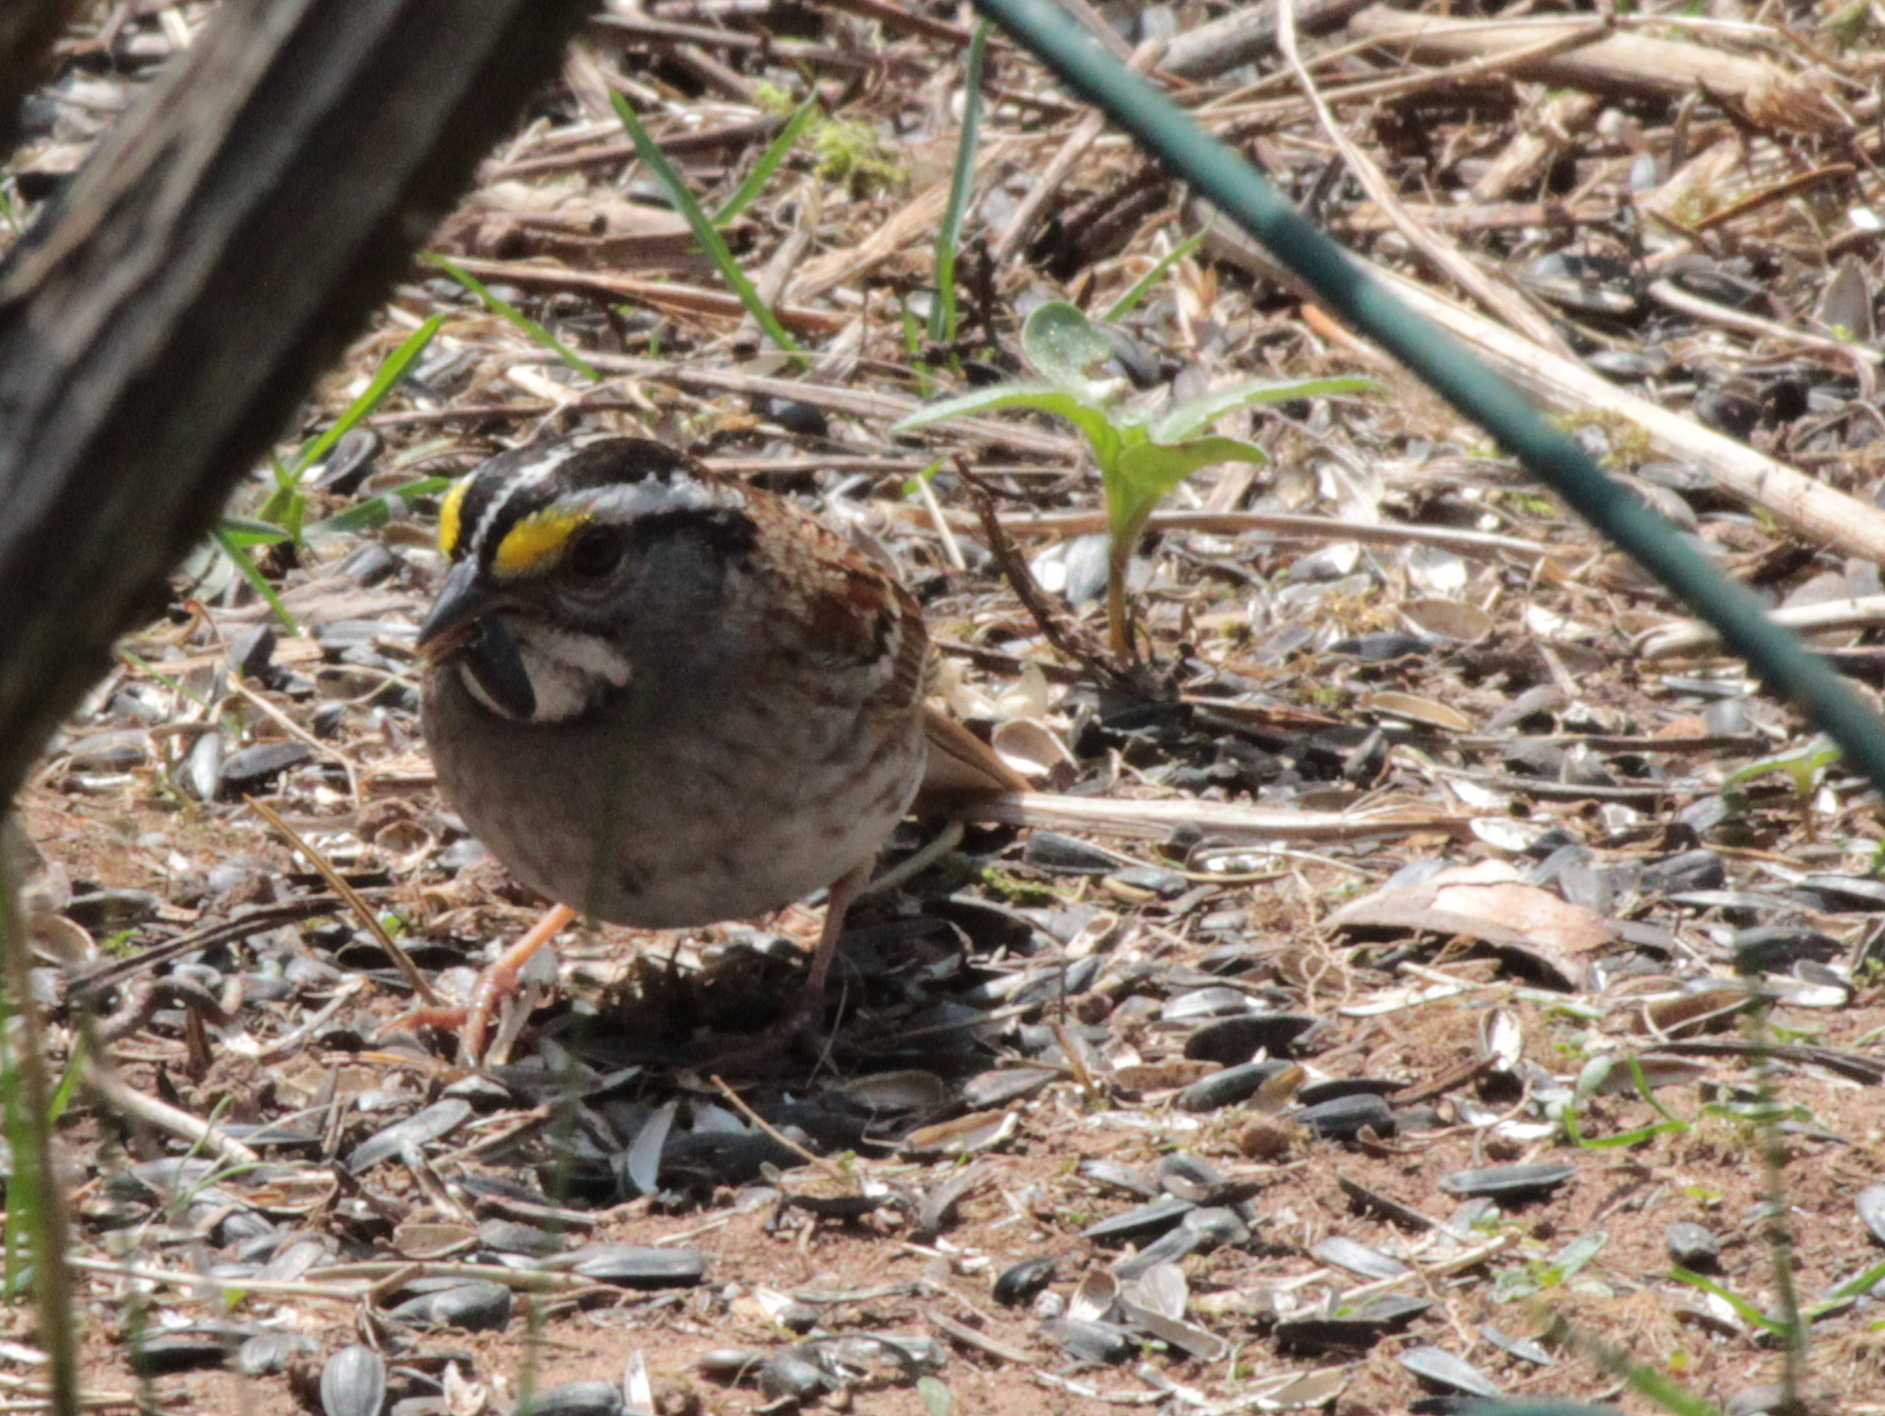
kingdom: Animalia
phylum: Chordata
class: Aves
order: Passeriformes
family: Passerellidae
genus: Zonotrichia
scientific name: Zonotrichia albicollis
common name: White-throated sparrow
